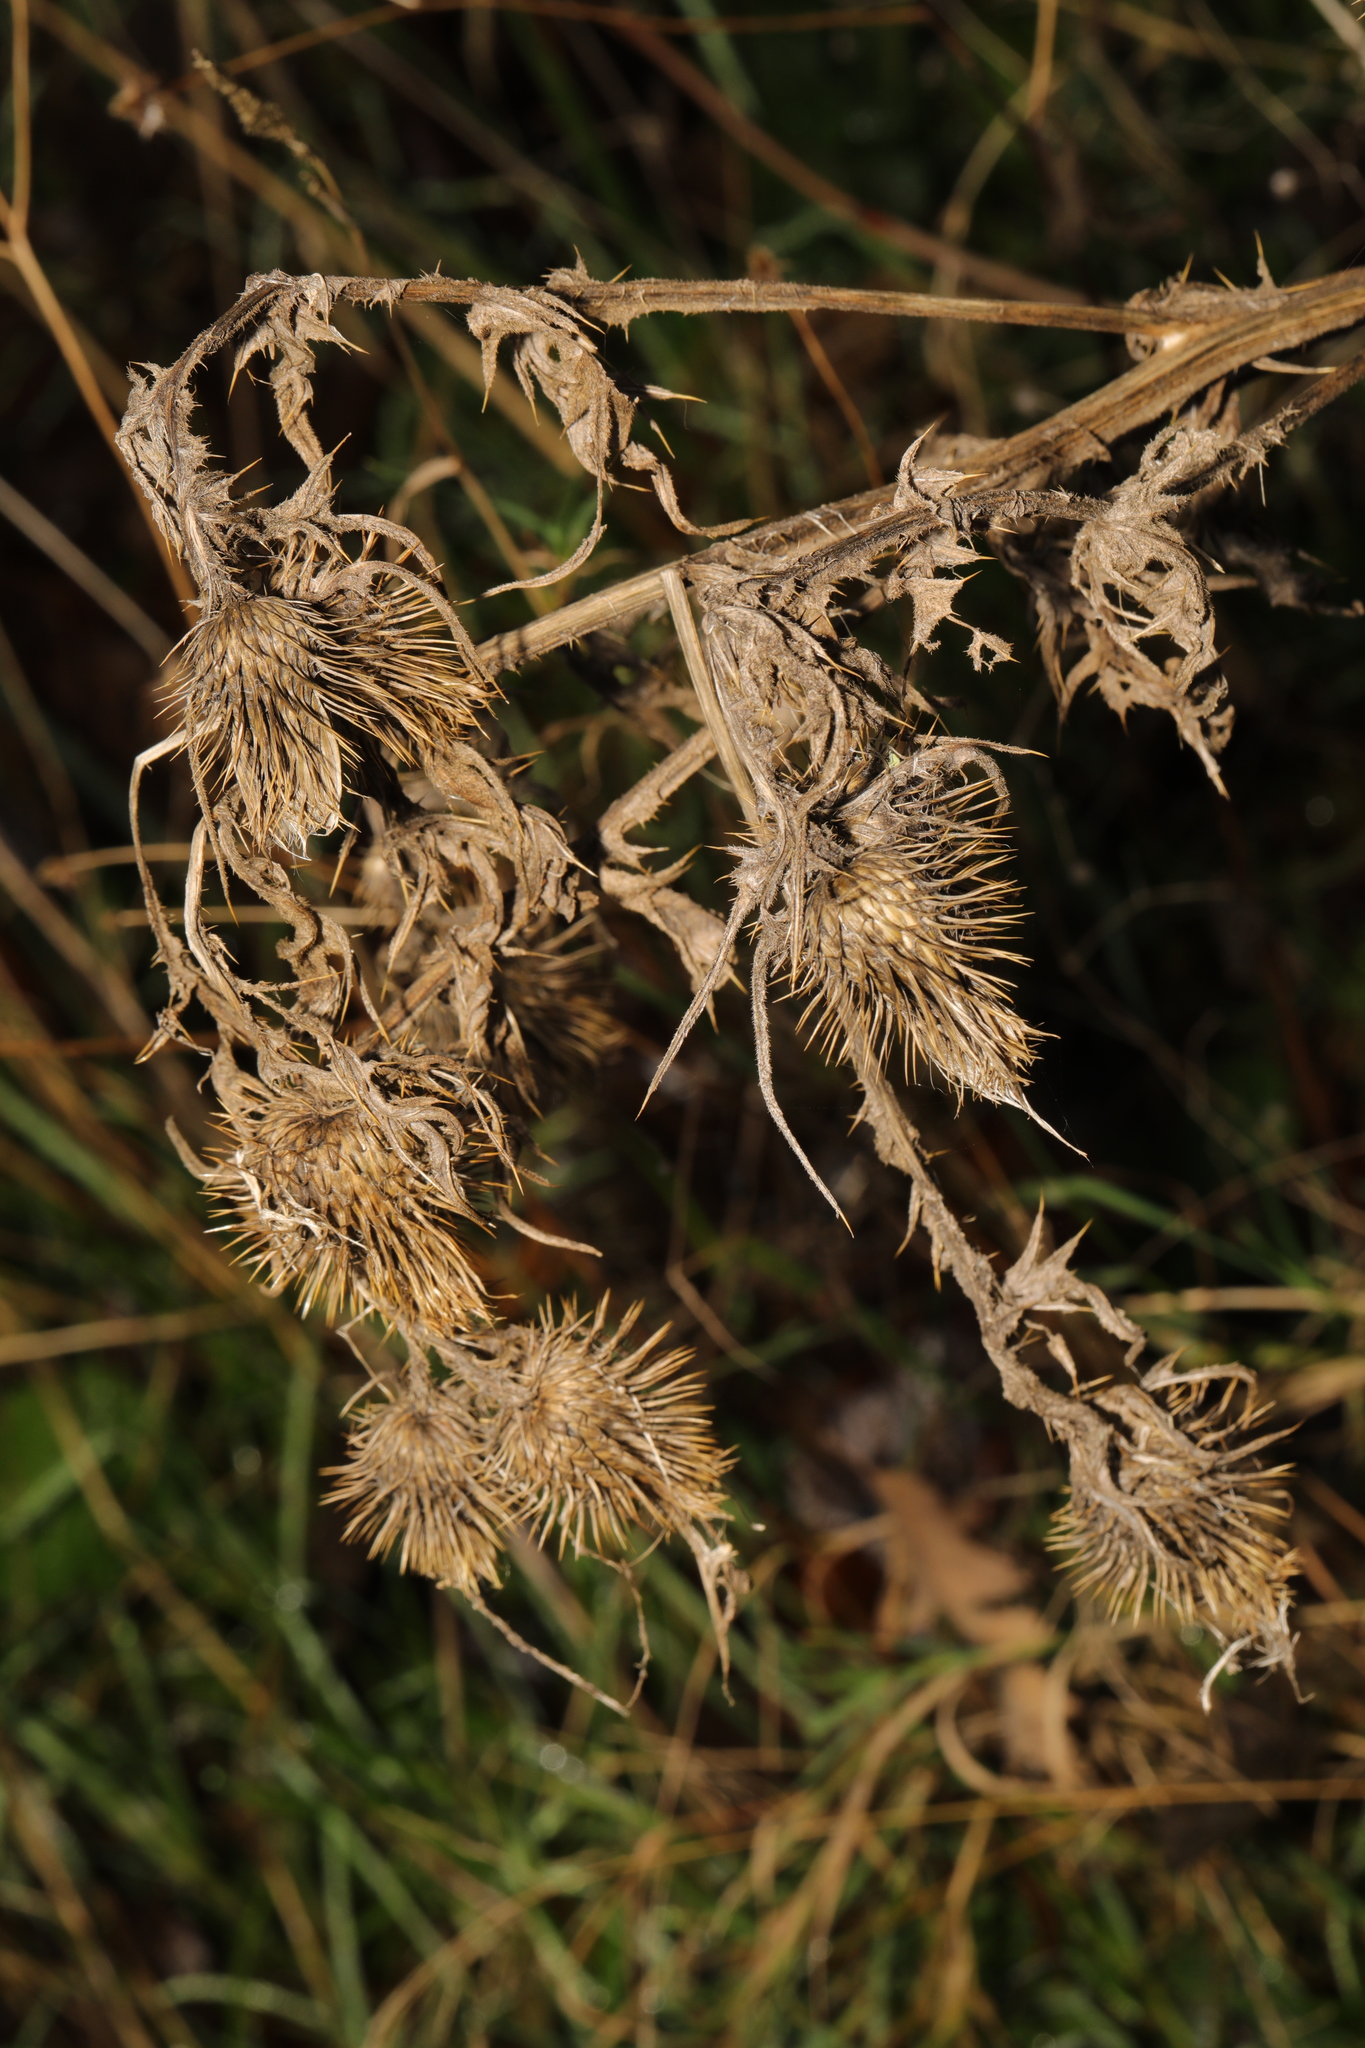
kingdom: Plantae
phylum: Tracheophyta
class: Magnoliopsida
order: Asterales
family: Asteraceae
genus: Cirsium
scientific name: Cirsium vulgare
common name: Bull thistle
